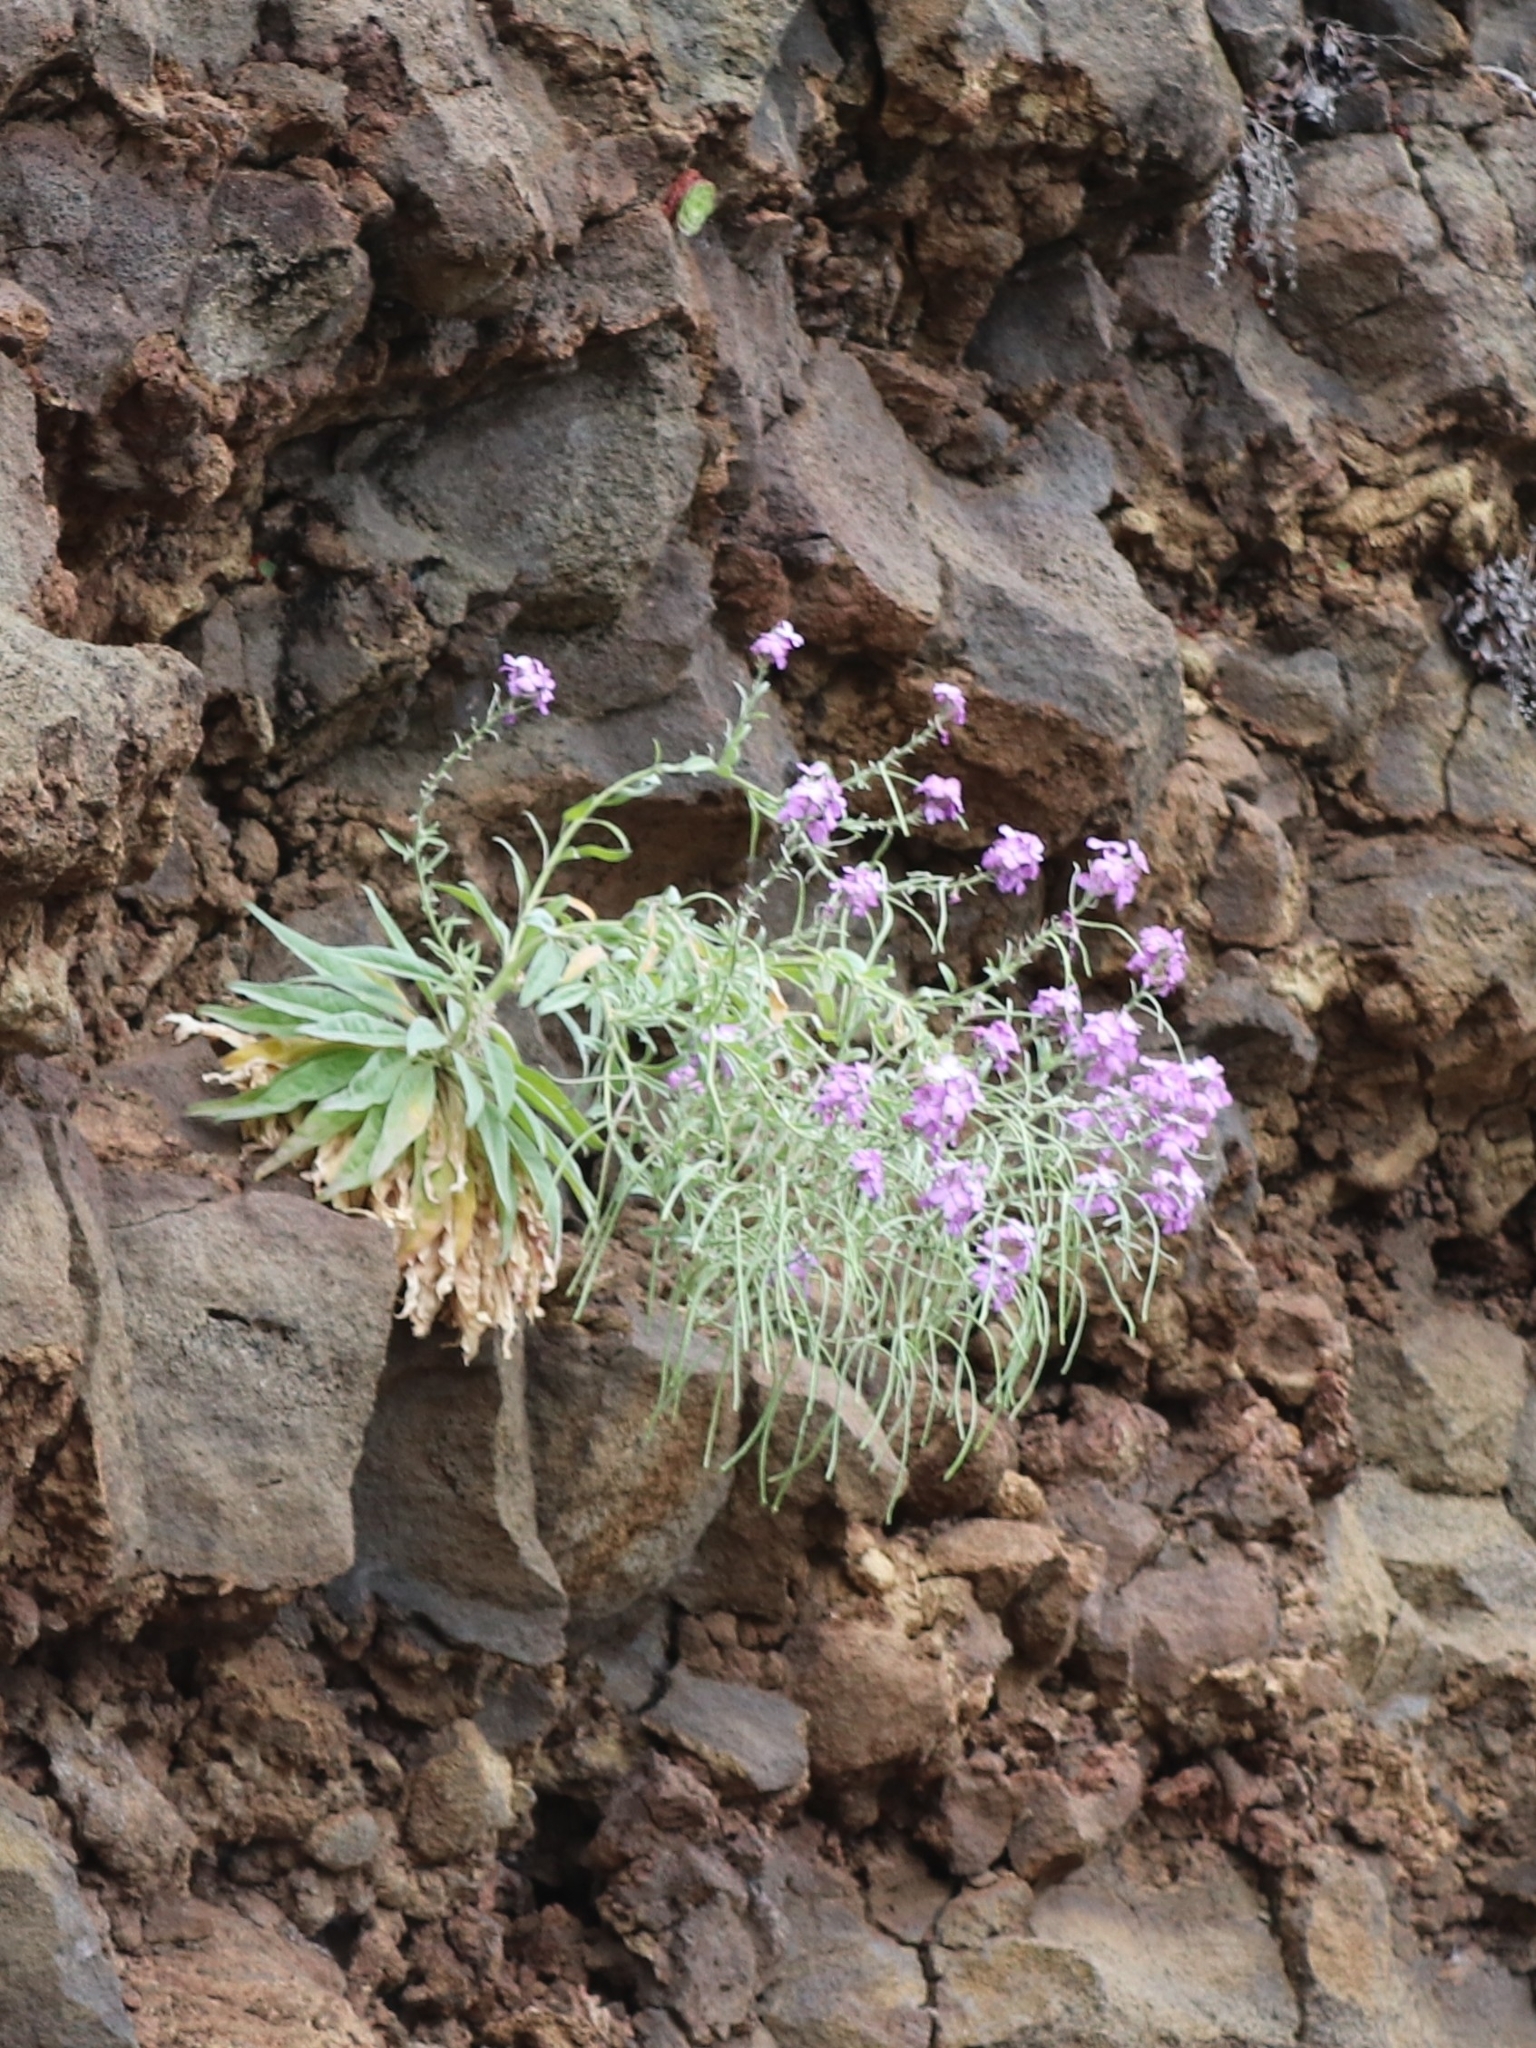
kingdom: Plantae
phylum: Tracheophyta
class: Magnoliopsida
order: Brassicales
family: Brassicaceae
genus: Matthiola
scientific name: Matthiola maderensis
